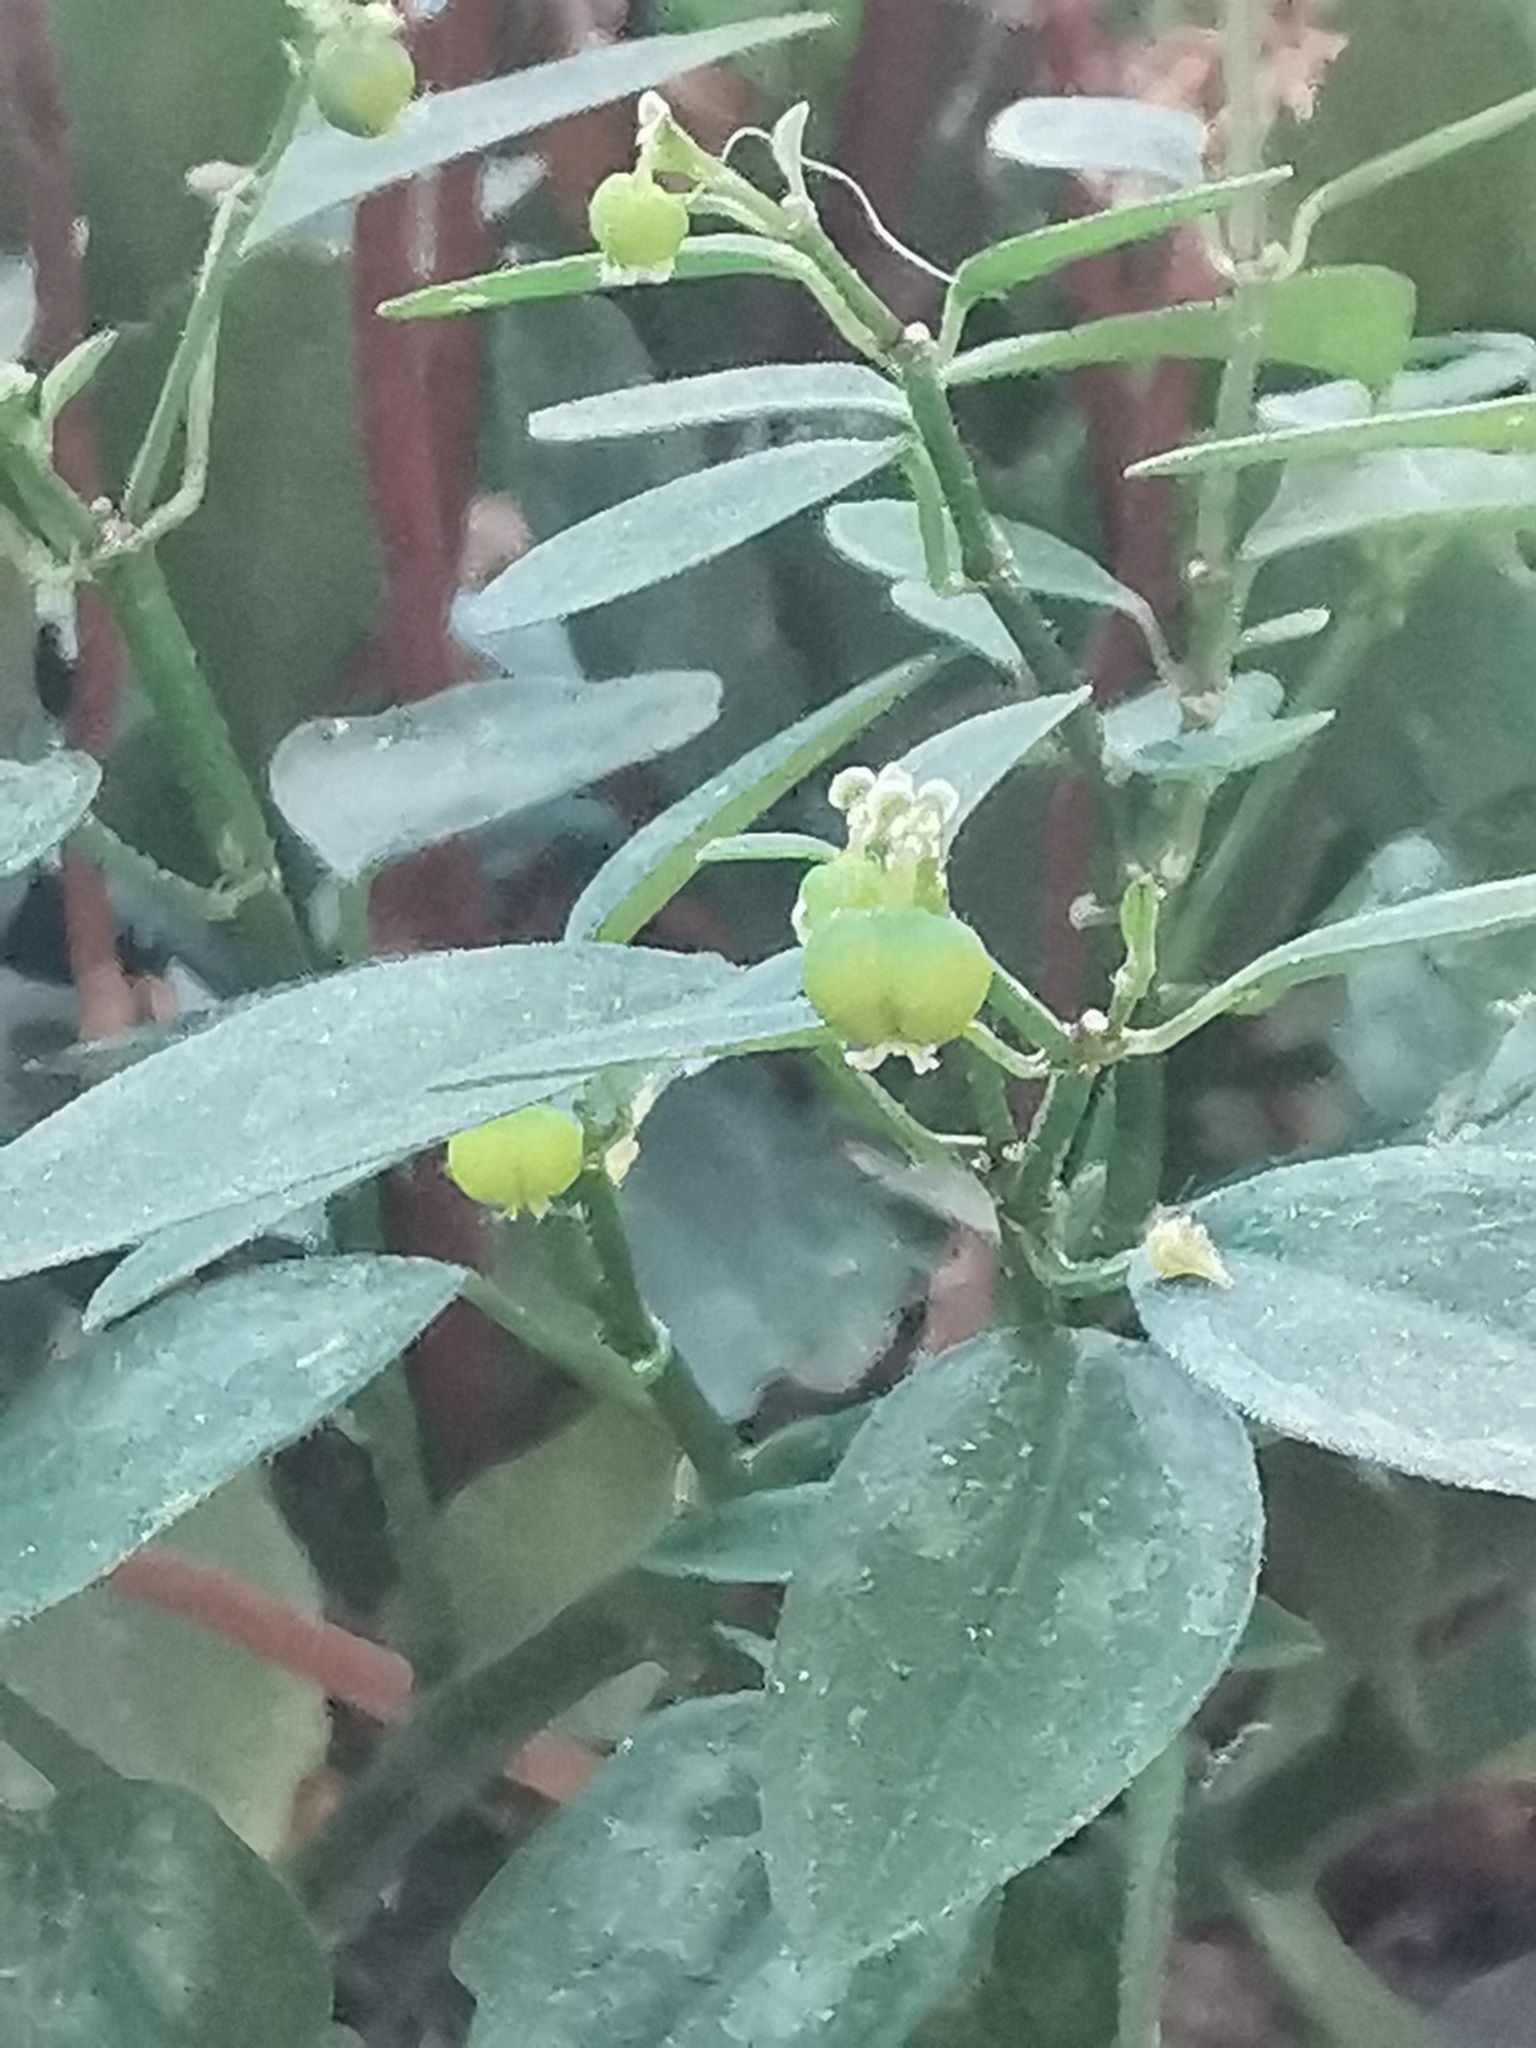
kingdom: Plantae
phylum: Tracheophyta
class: Magnoliopsida
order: Malpighiales
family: Euphorbiaceae
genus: Euphorbia
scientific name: Euphorbia graminea
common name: Grassleaf spurge
